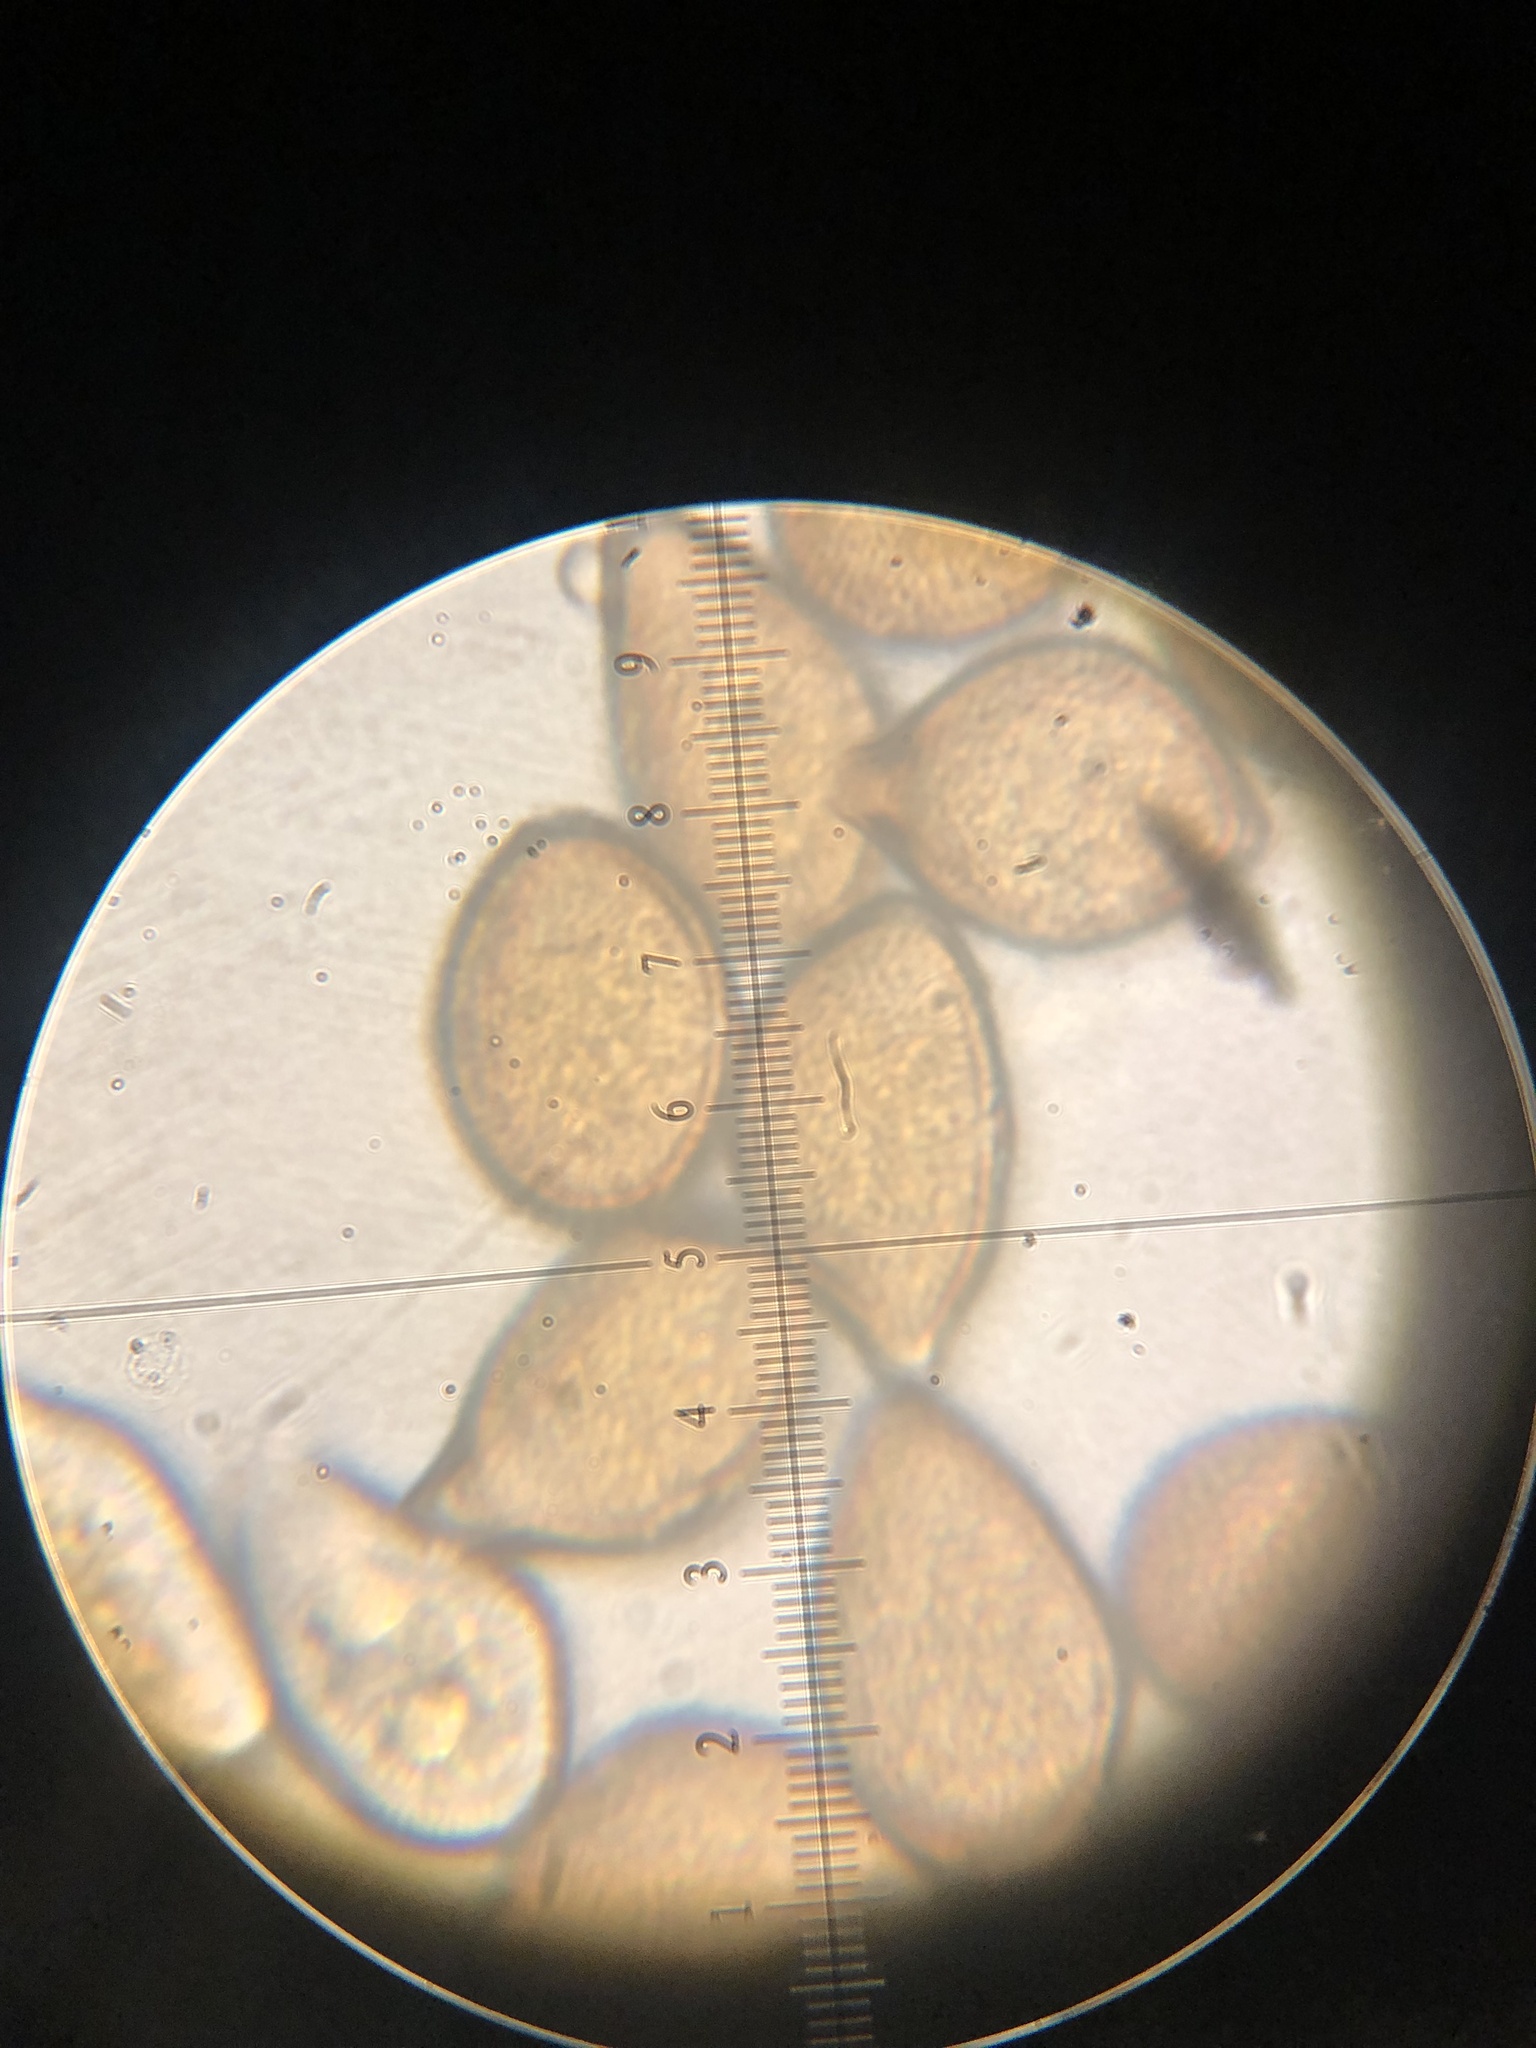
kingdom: Fungi
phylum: Basidiomycota
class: Pucciniomycetes
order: Pucciniales
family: Pucciniaceae
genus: Cumminsiella
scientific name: Cumminsiella mirabilissima
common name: Mahonia rust
